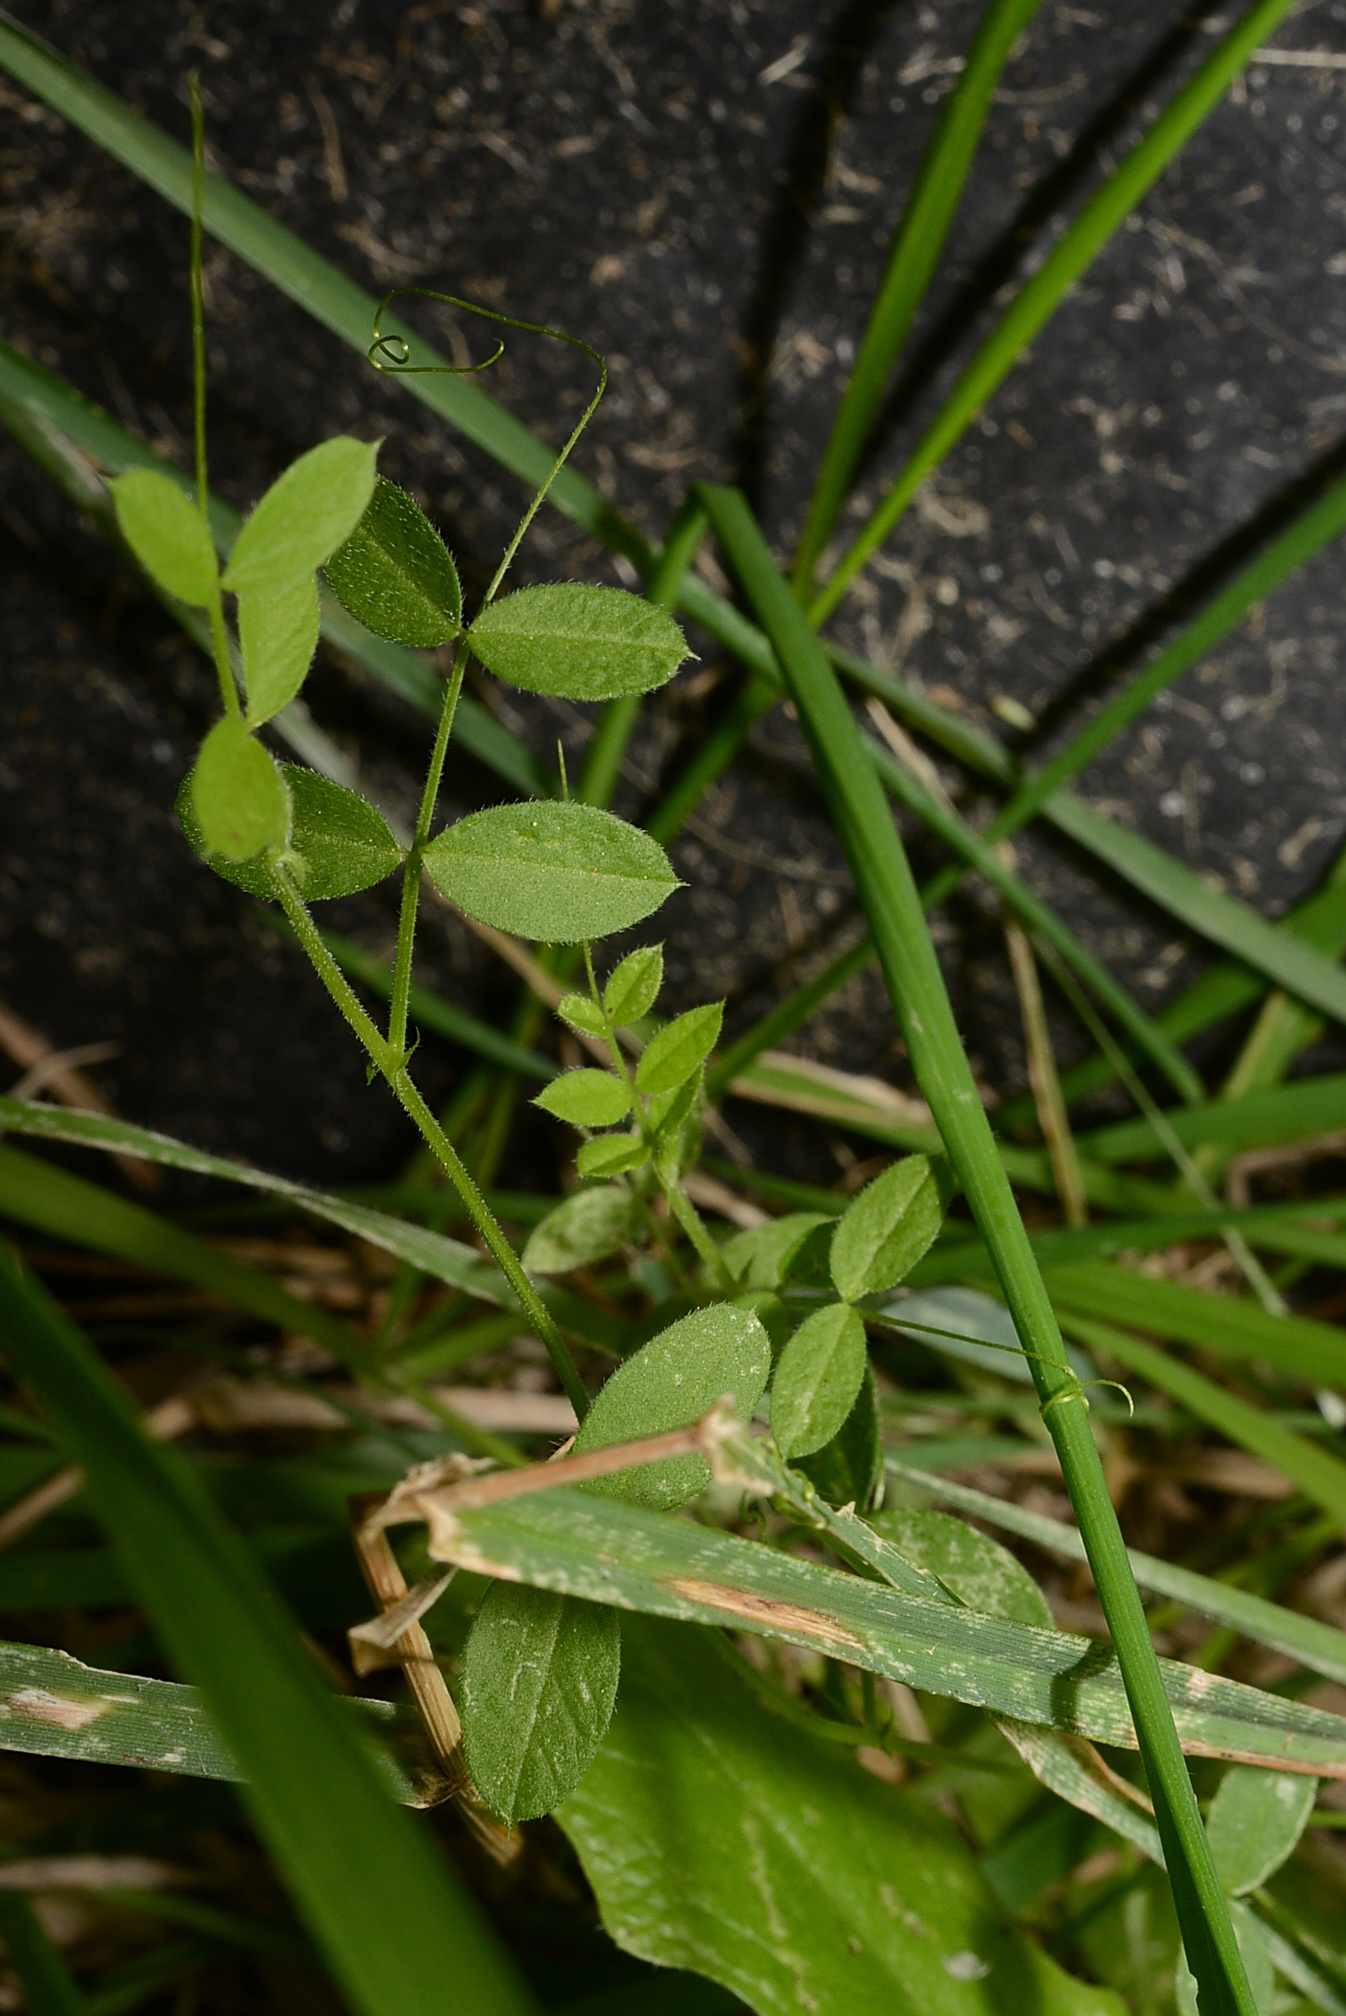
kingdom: Plantae
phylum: Tracheophyta
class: Magnoliopsida
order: Fabales
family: Fabaceae
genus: Vicia
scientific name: Vicia sativa
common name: Garden vetch
